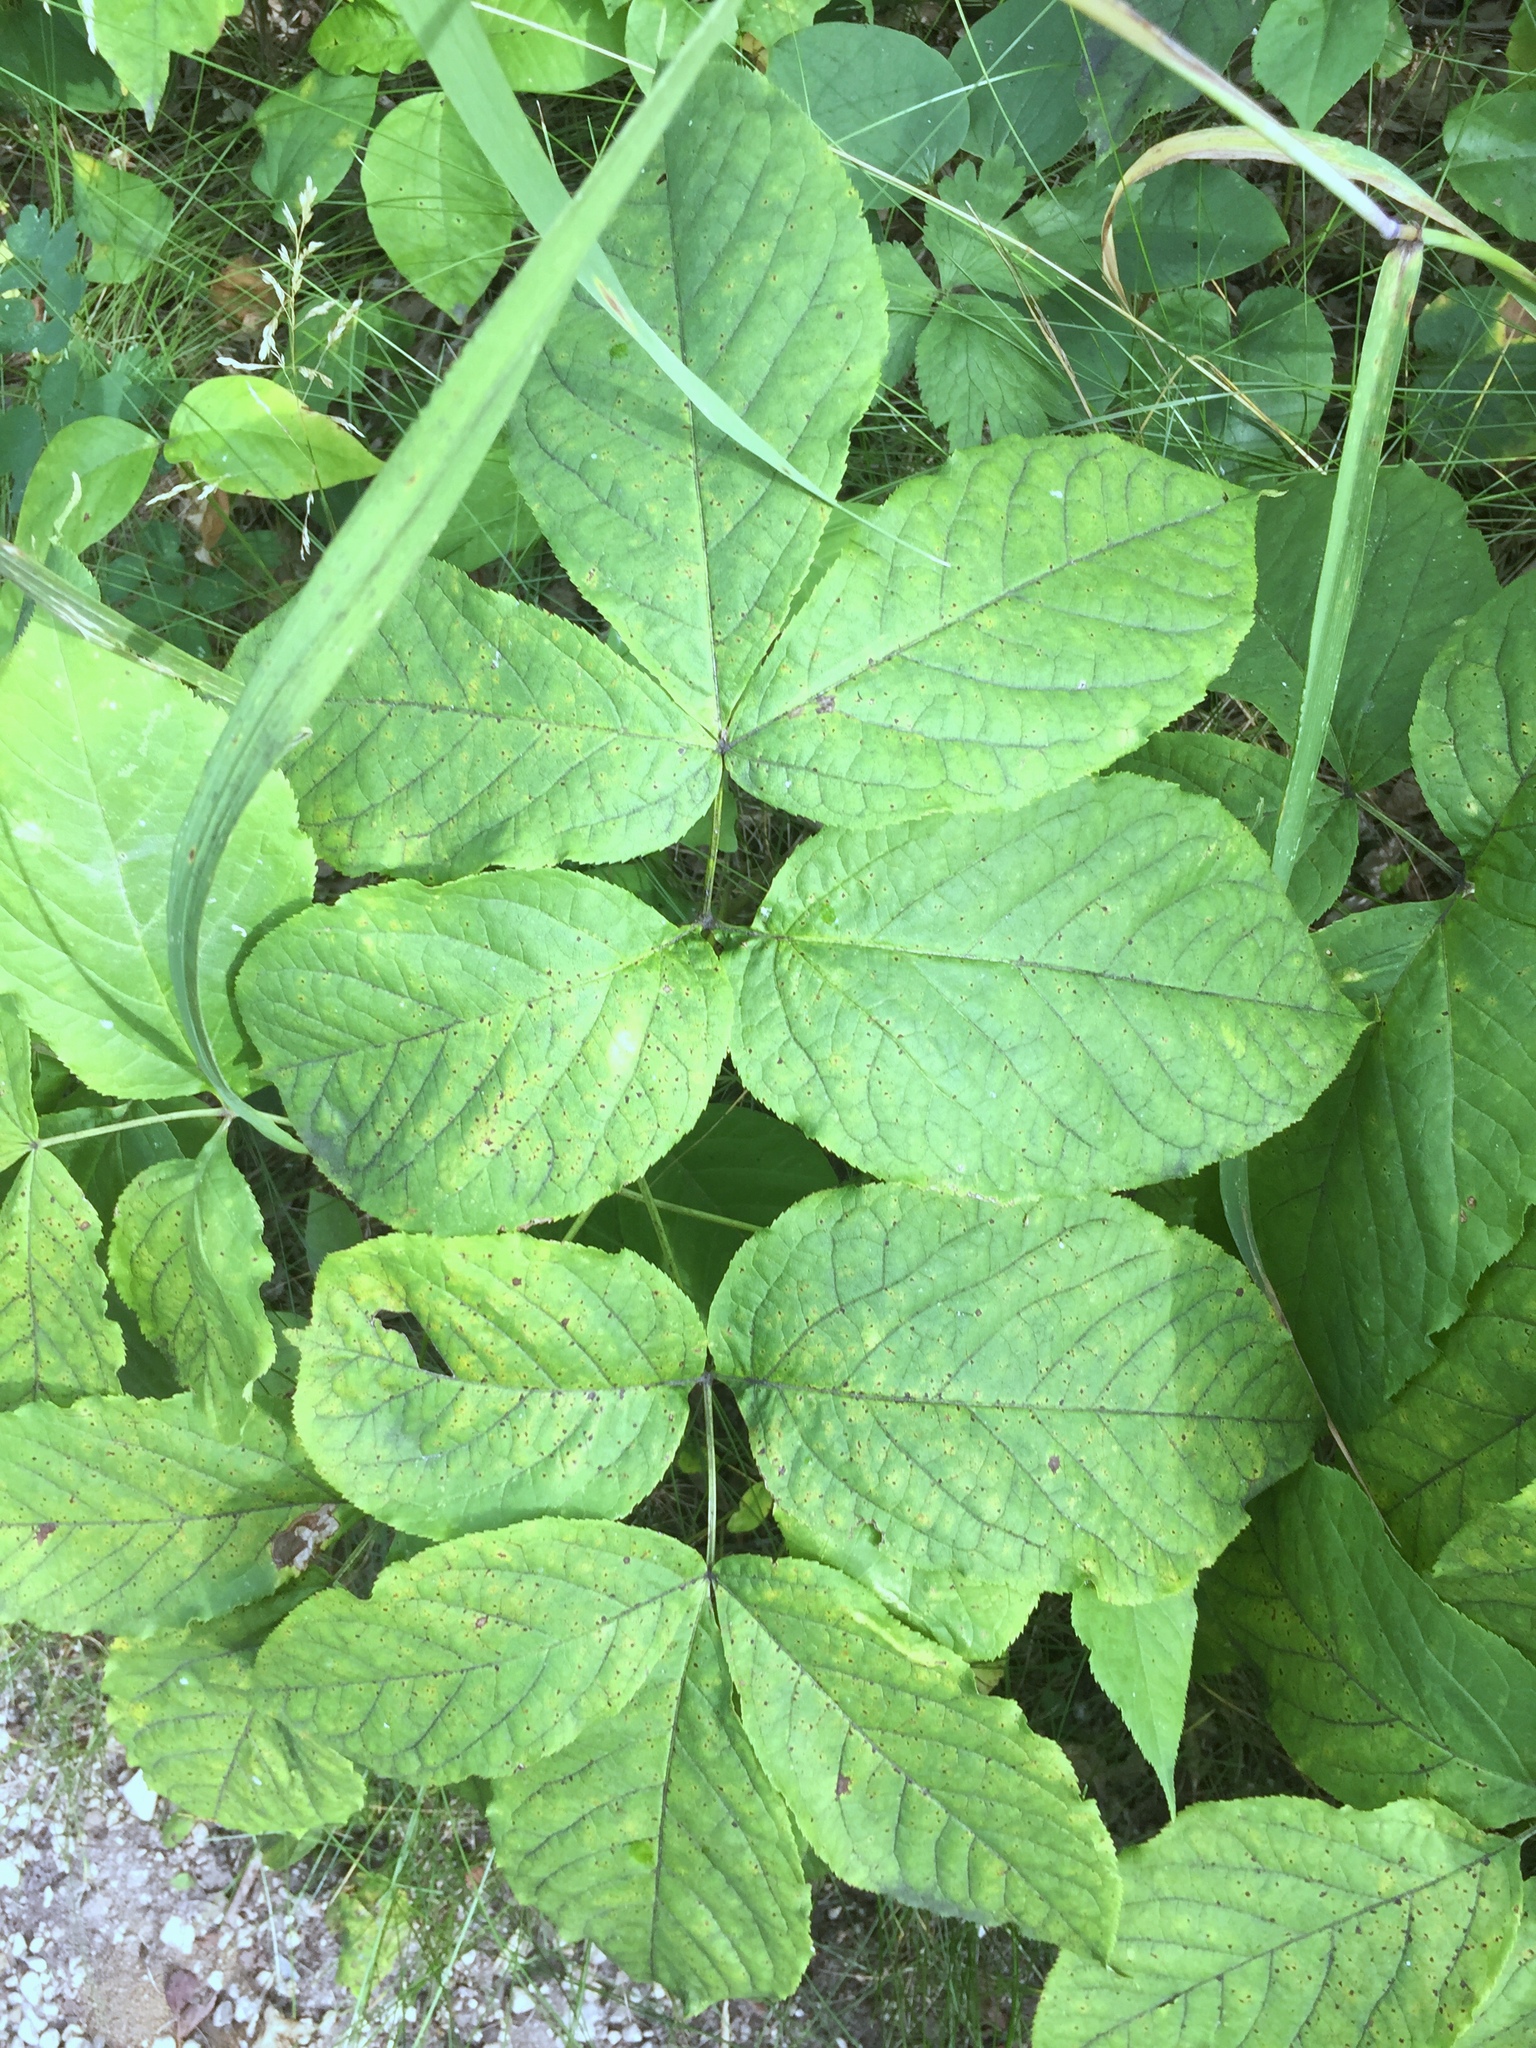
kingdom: Plantae
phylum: Tracheophyta
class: Magnoliopsida
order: Apiales
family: Araliaceae
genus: Aralia
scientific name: Aralia nudicaulis
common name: Wild sarsaparilla
